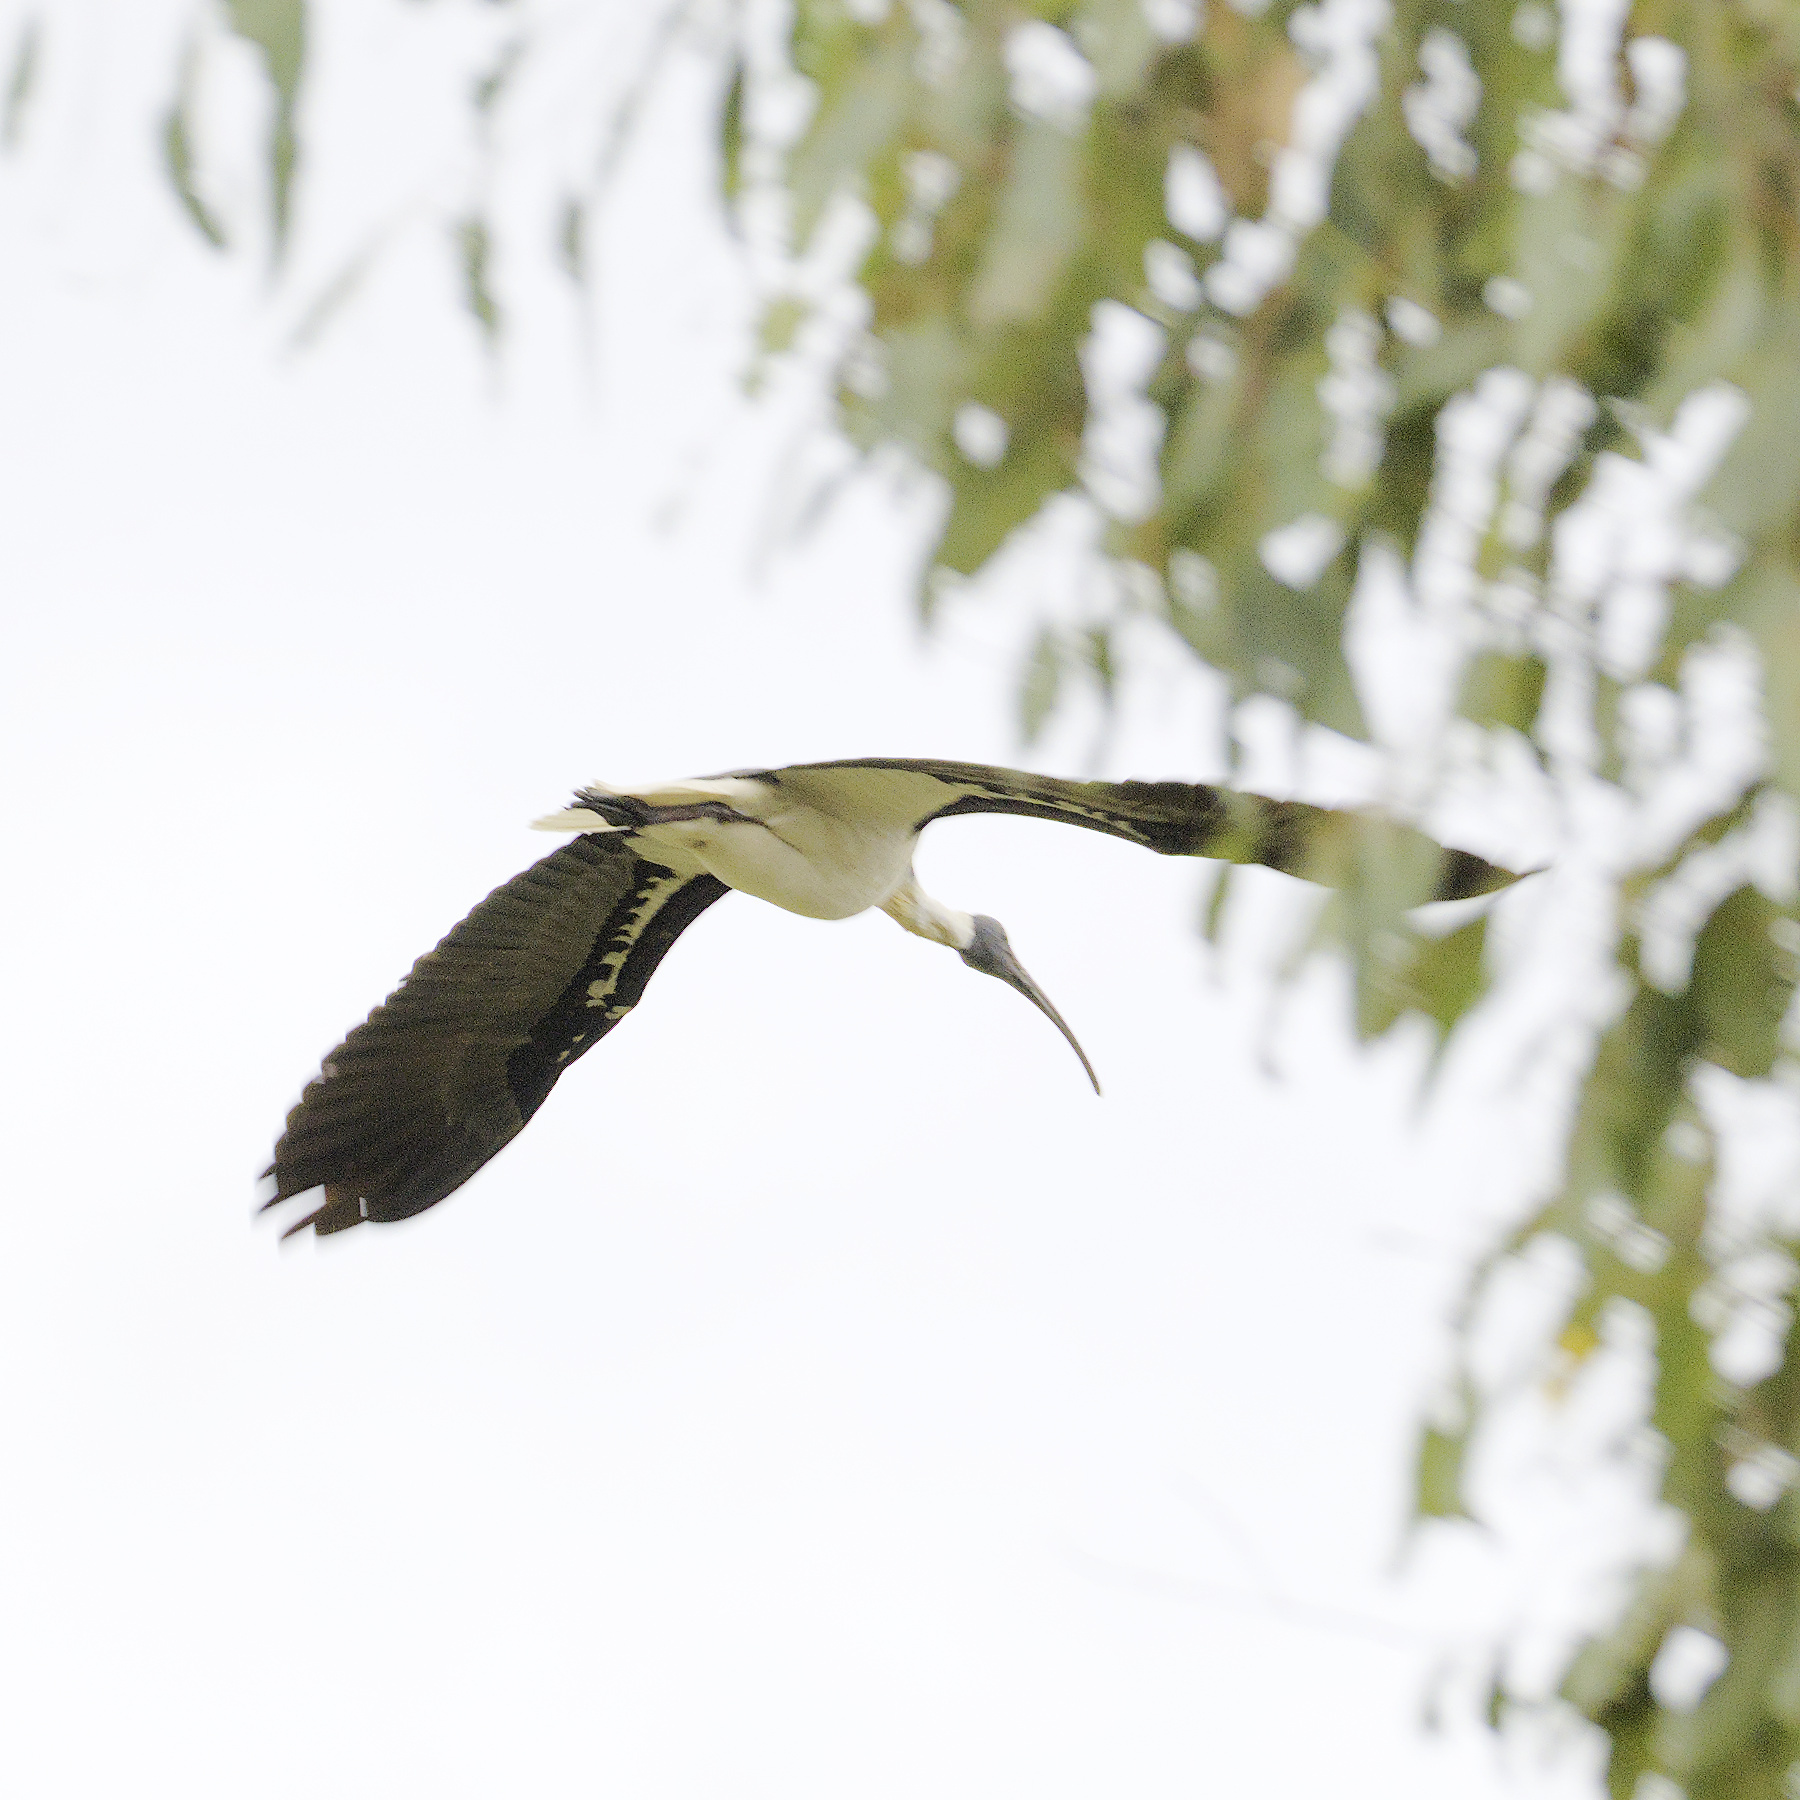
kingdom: Animalia
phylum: Chordata
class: Aves
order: Pelecaniformes
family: Threskiornithidae
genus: Threskiornis
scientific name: Threskiornis spinicollis
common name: Straw-necked ibis
